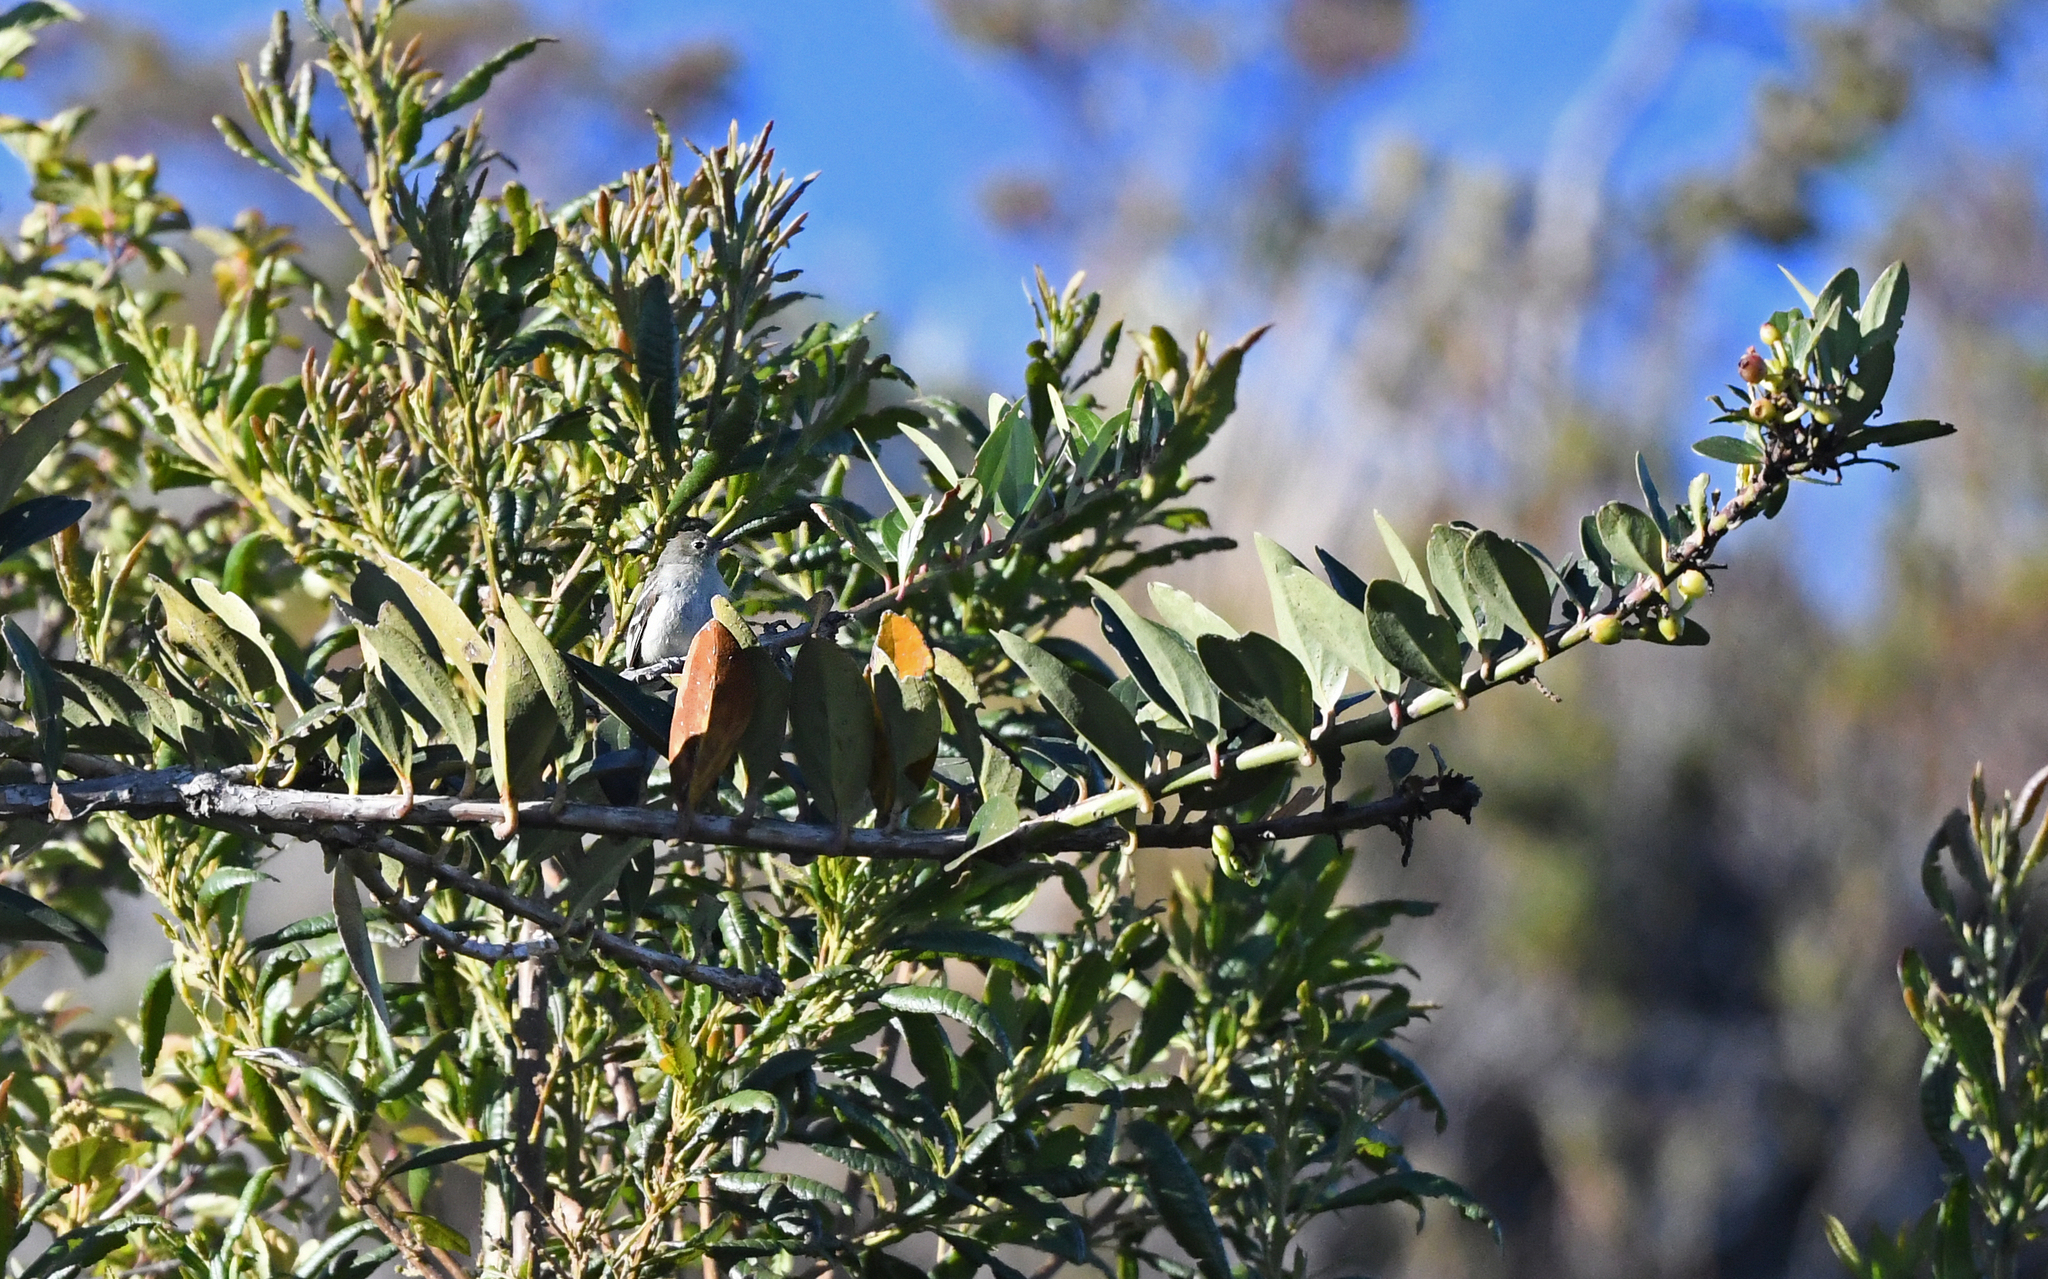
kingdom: Animalia
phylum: Chordata
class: Aves
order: Passeriformes
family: Tyrannidae
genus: Elaenia
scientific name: Elaenia frantzii
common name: Mountain elaenia
